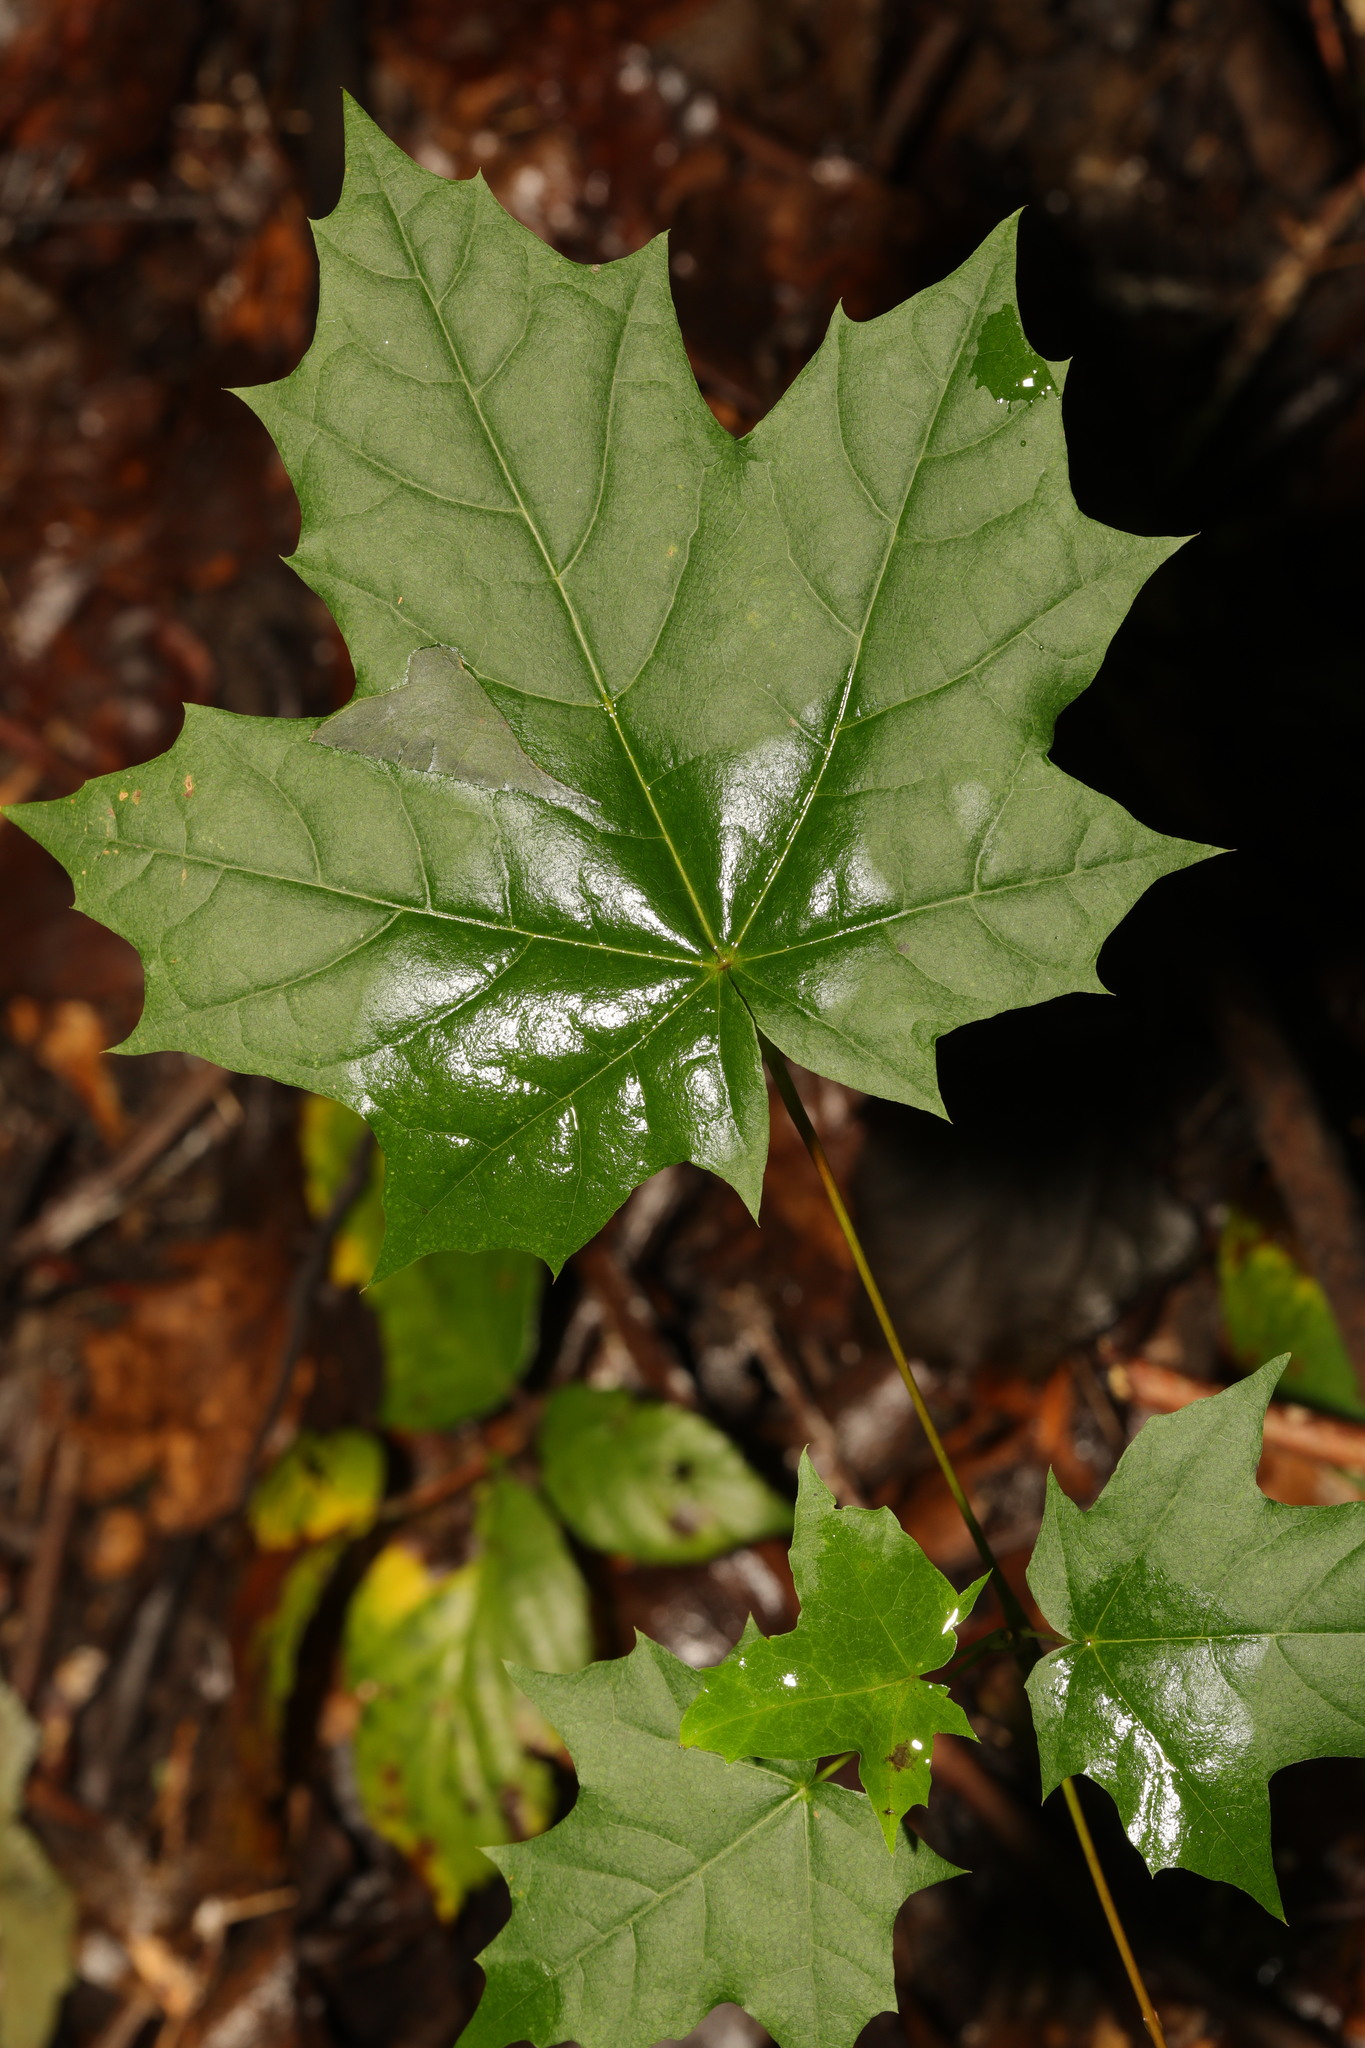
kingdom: Plantae
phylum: Tracheophyta
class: Magnoliopsida
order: Sapindales
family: Sapindaceae
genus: Acer
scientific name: Acer platanoides
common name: Norway maple
